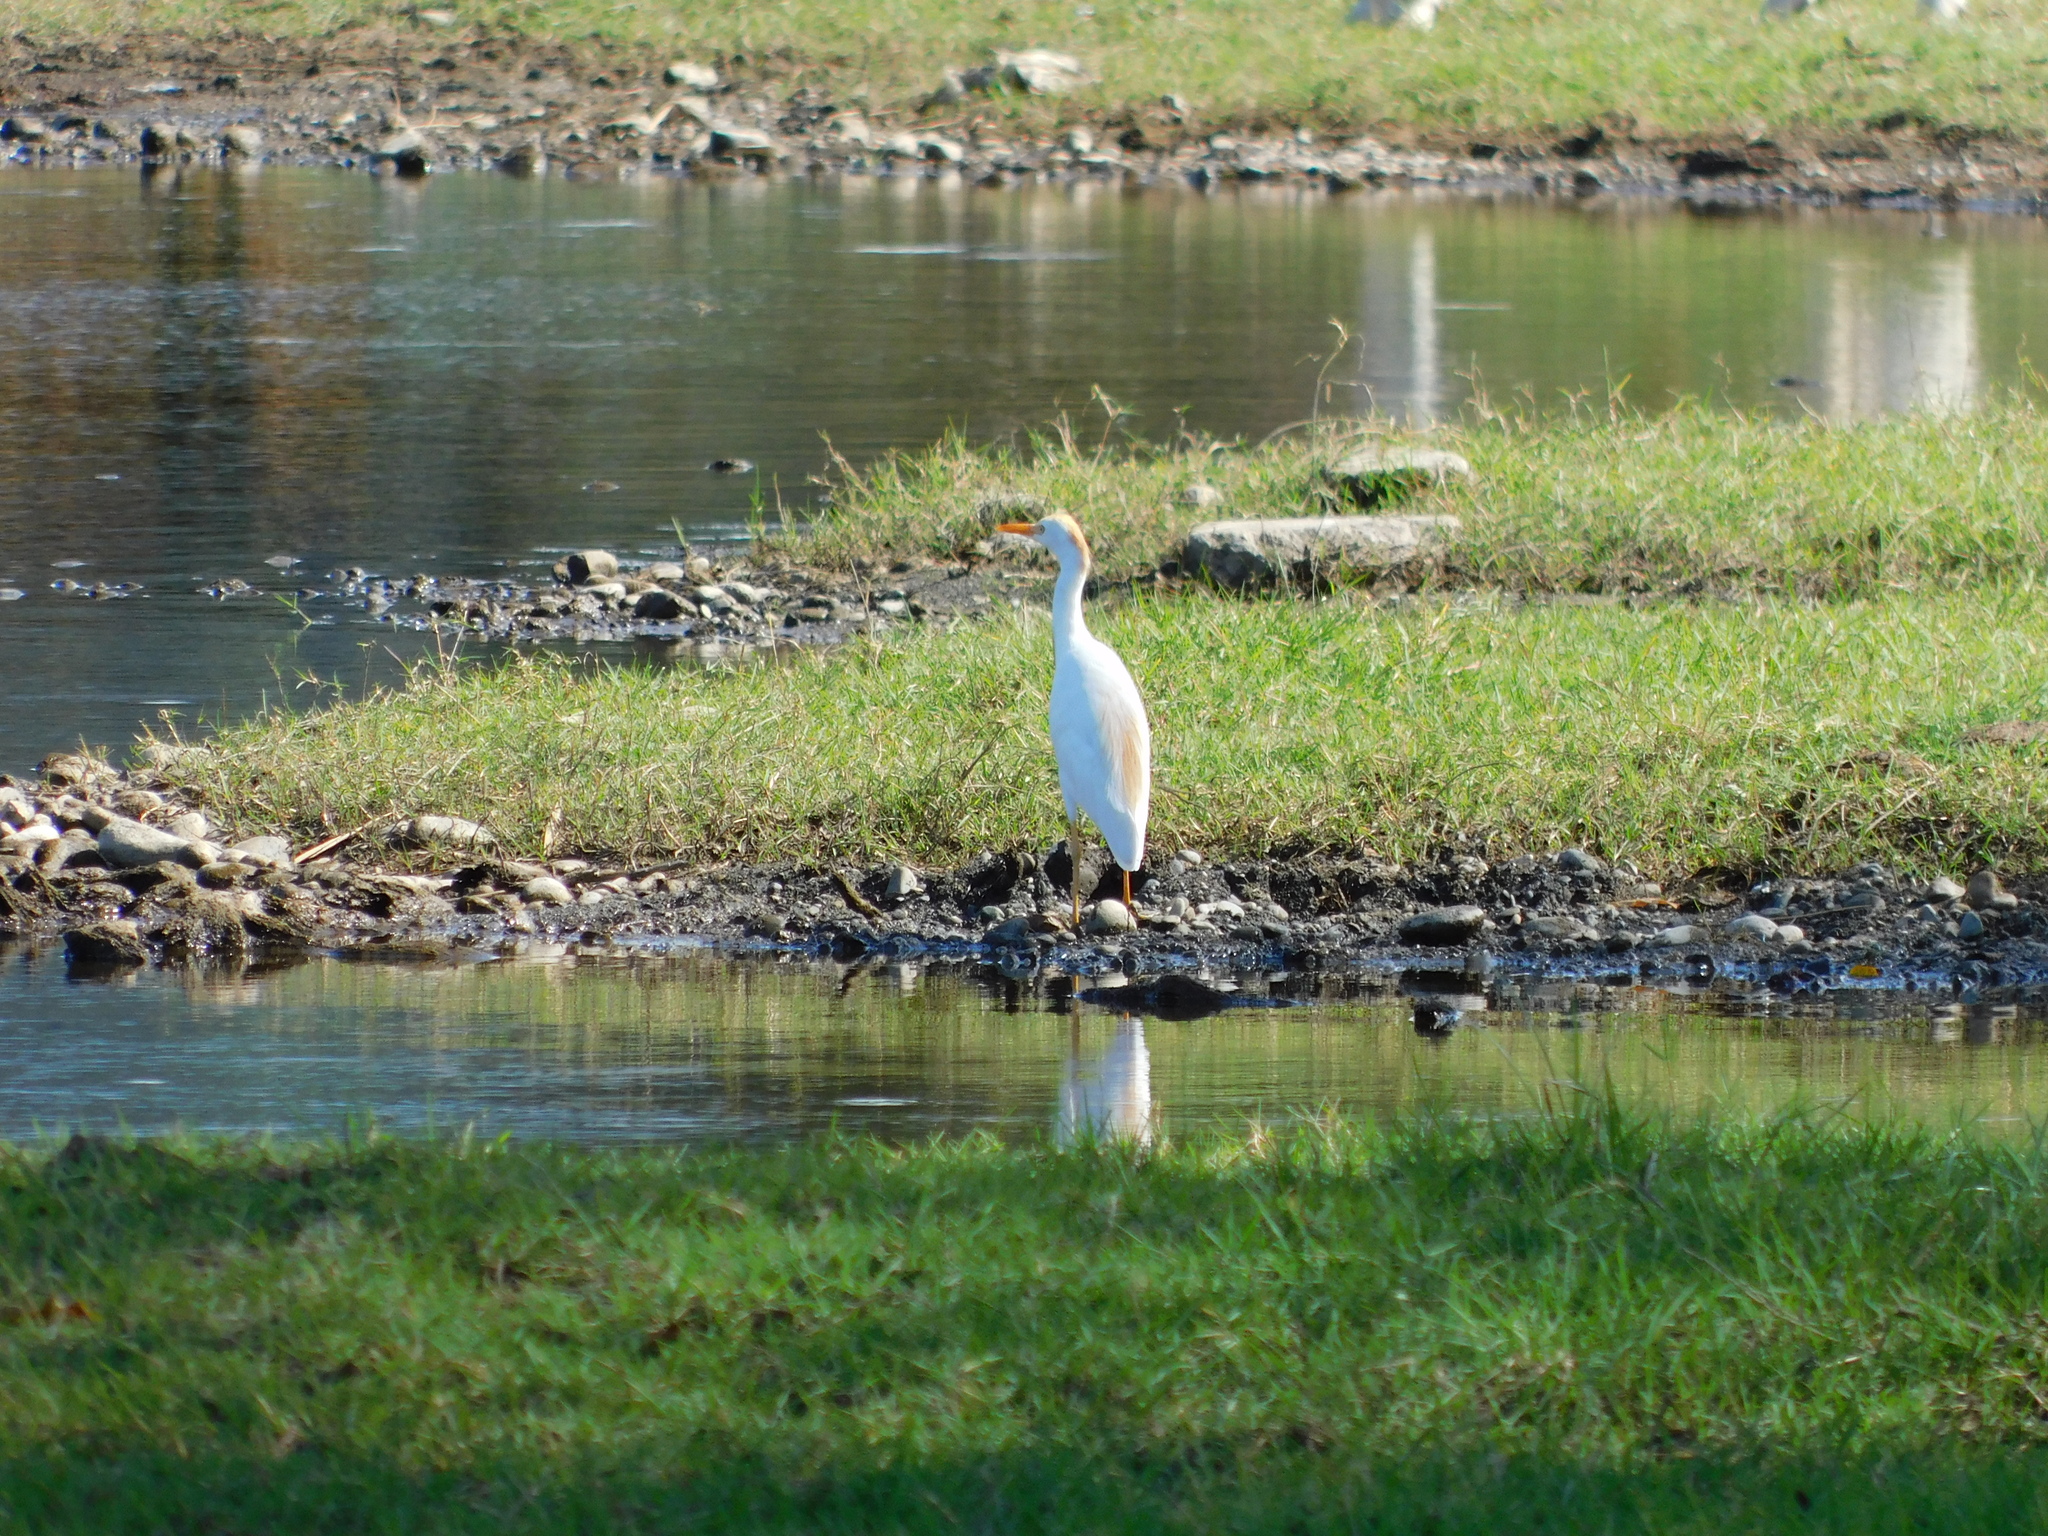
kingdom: Animalia
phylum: Chordata
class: Aves
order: Pelecaniformes
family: Ardeidae
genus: Bubulcus
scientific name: Bubulcus ibis
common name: Cattle egret
